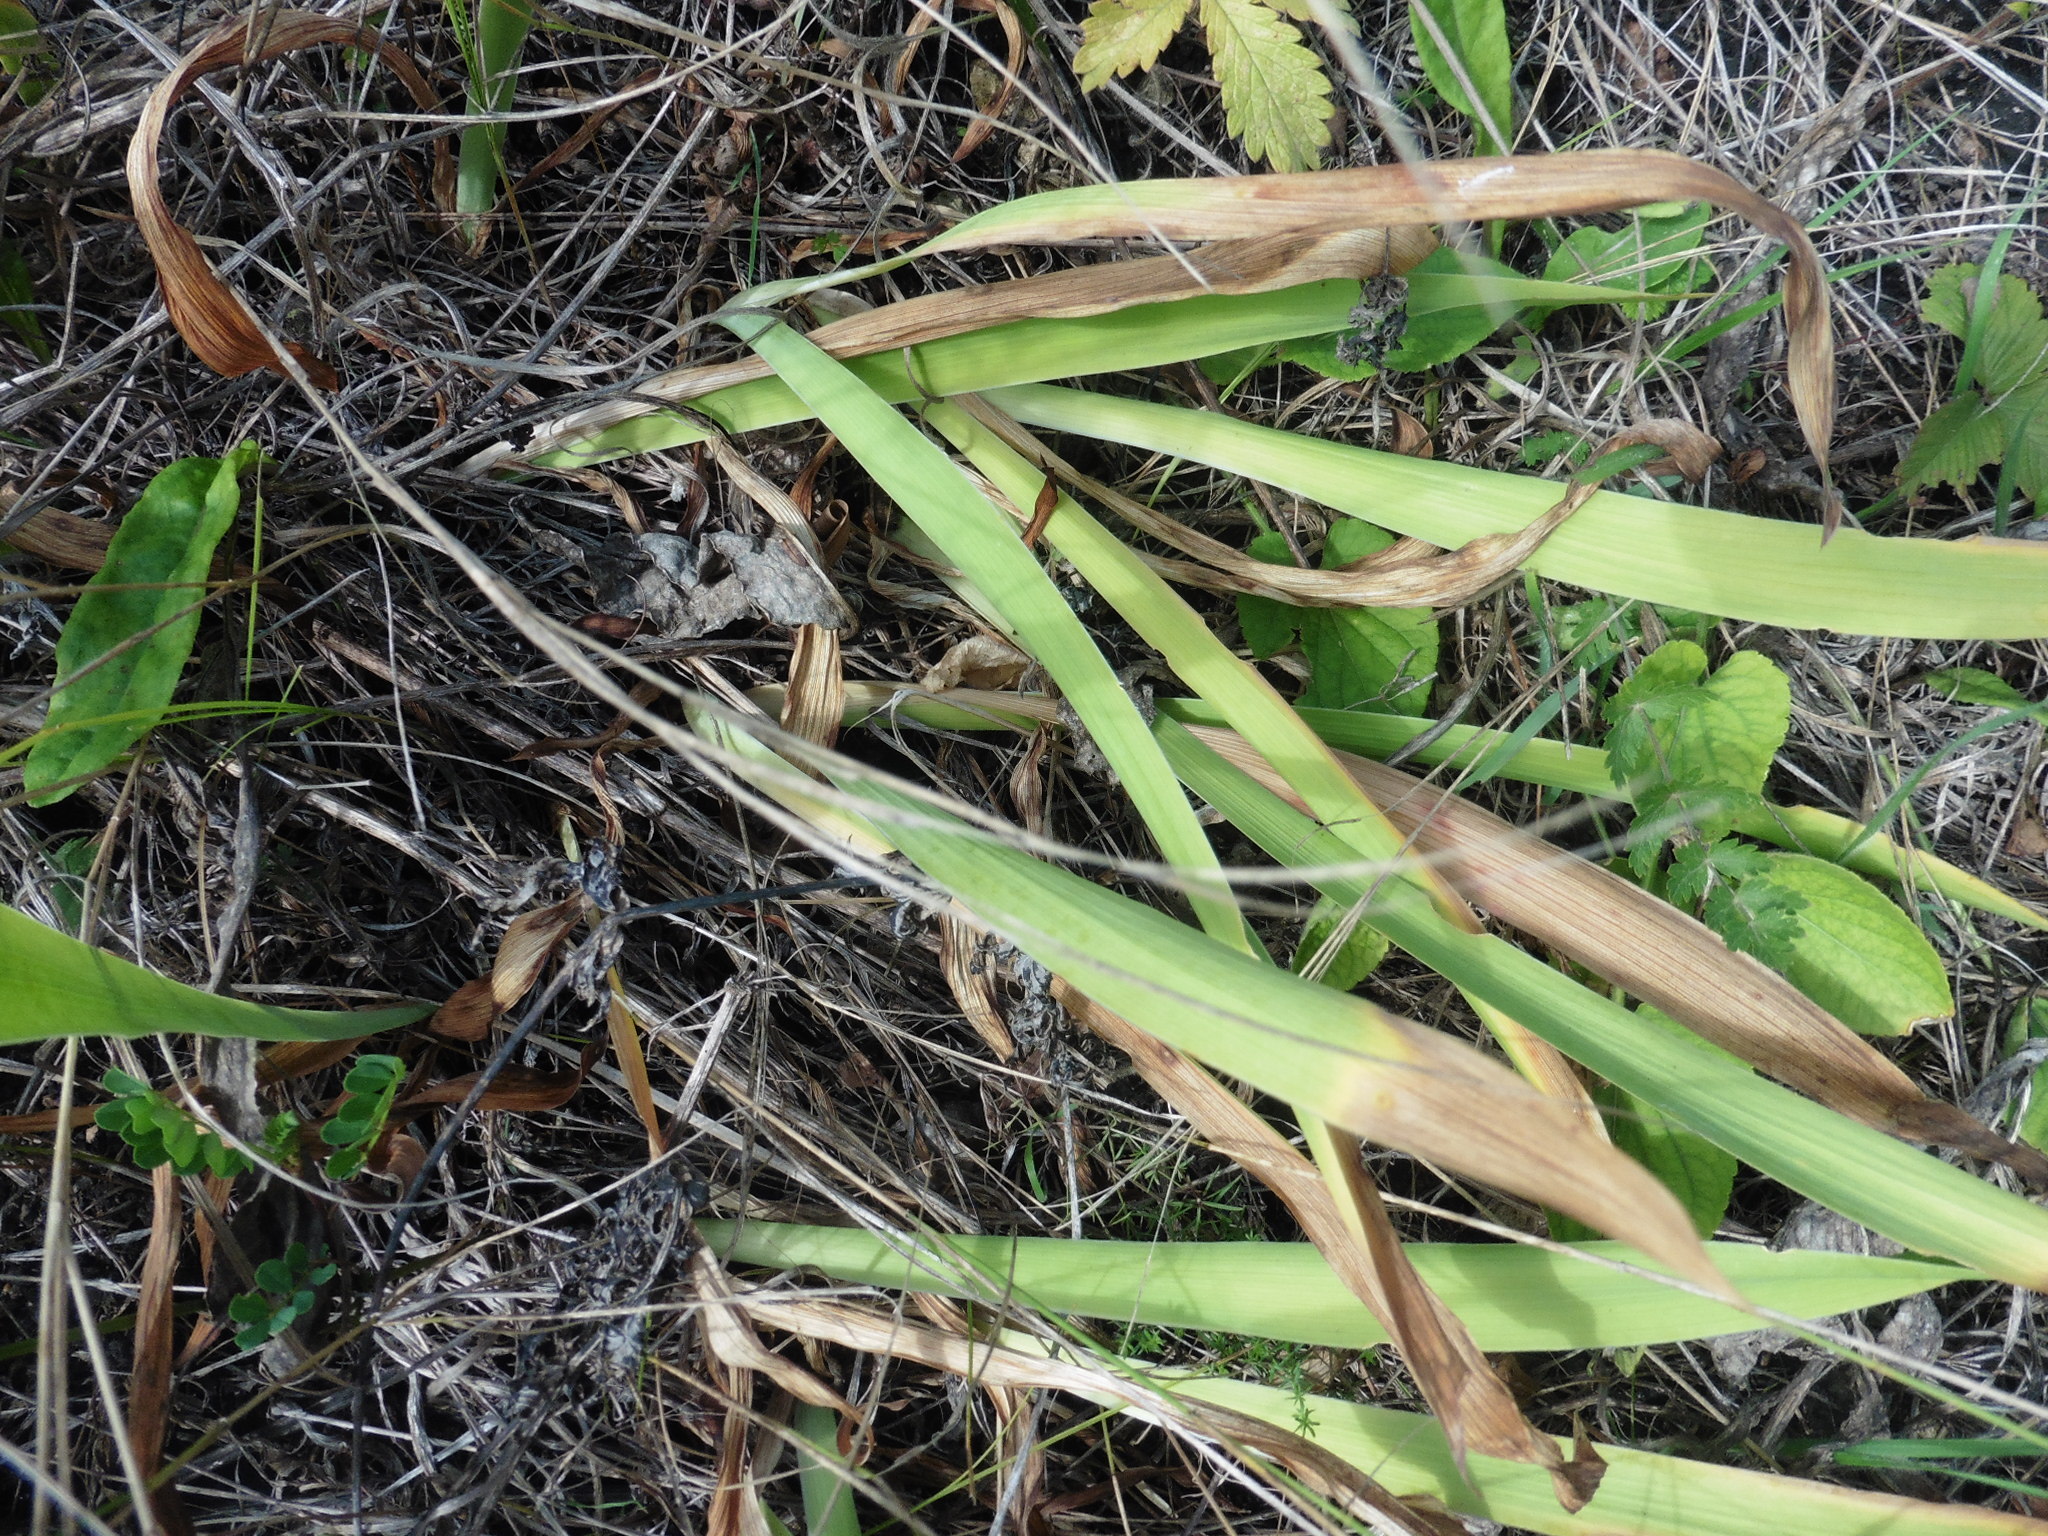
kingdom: Plantae
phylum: Tracheophyta
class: Liliopsida
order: Asparagales
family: Iridaceae
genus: Iris
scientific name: Iris aphylla
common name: Stool iris
